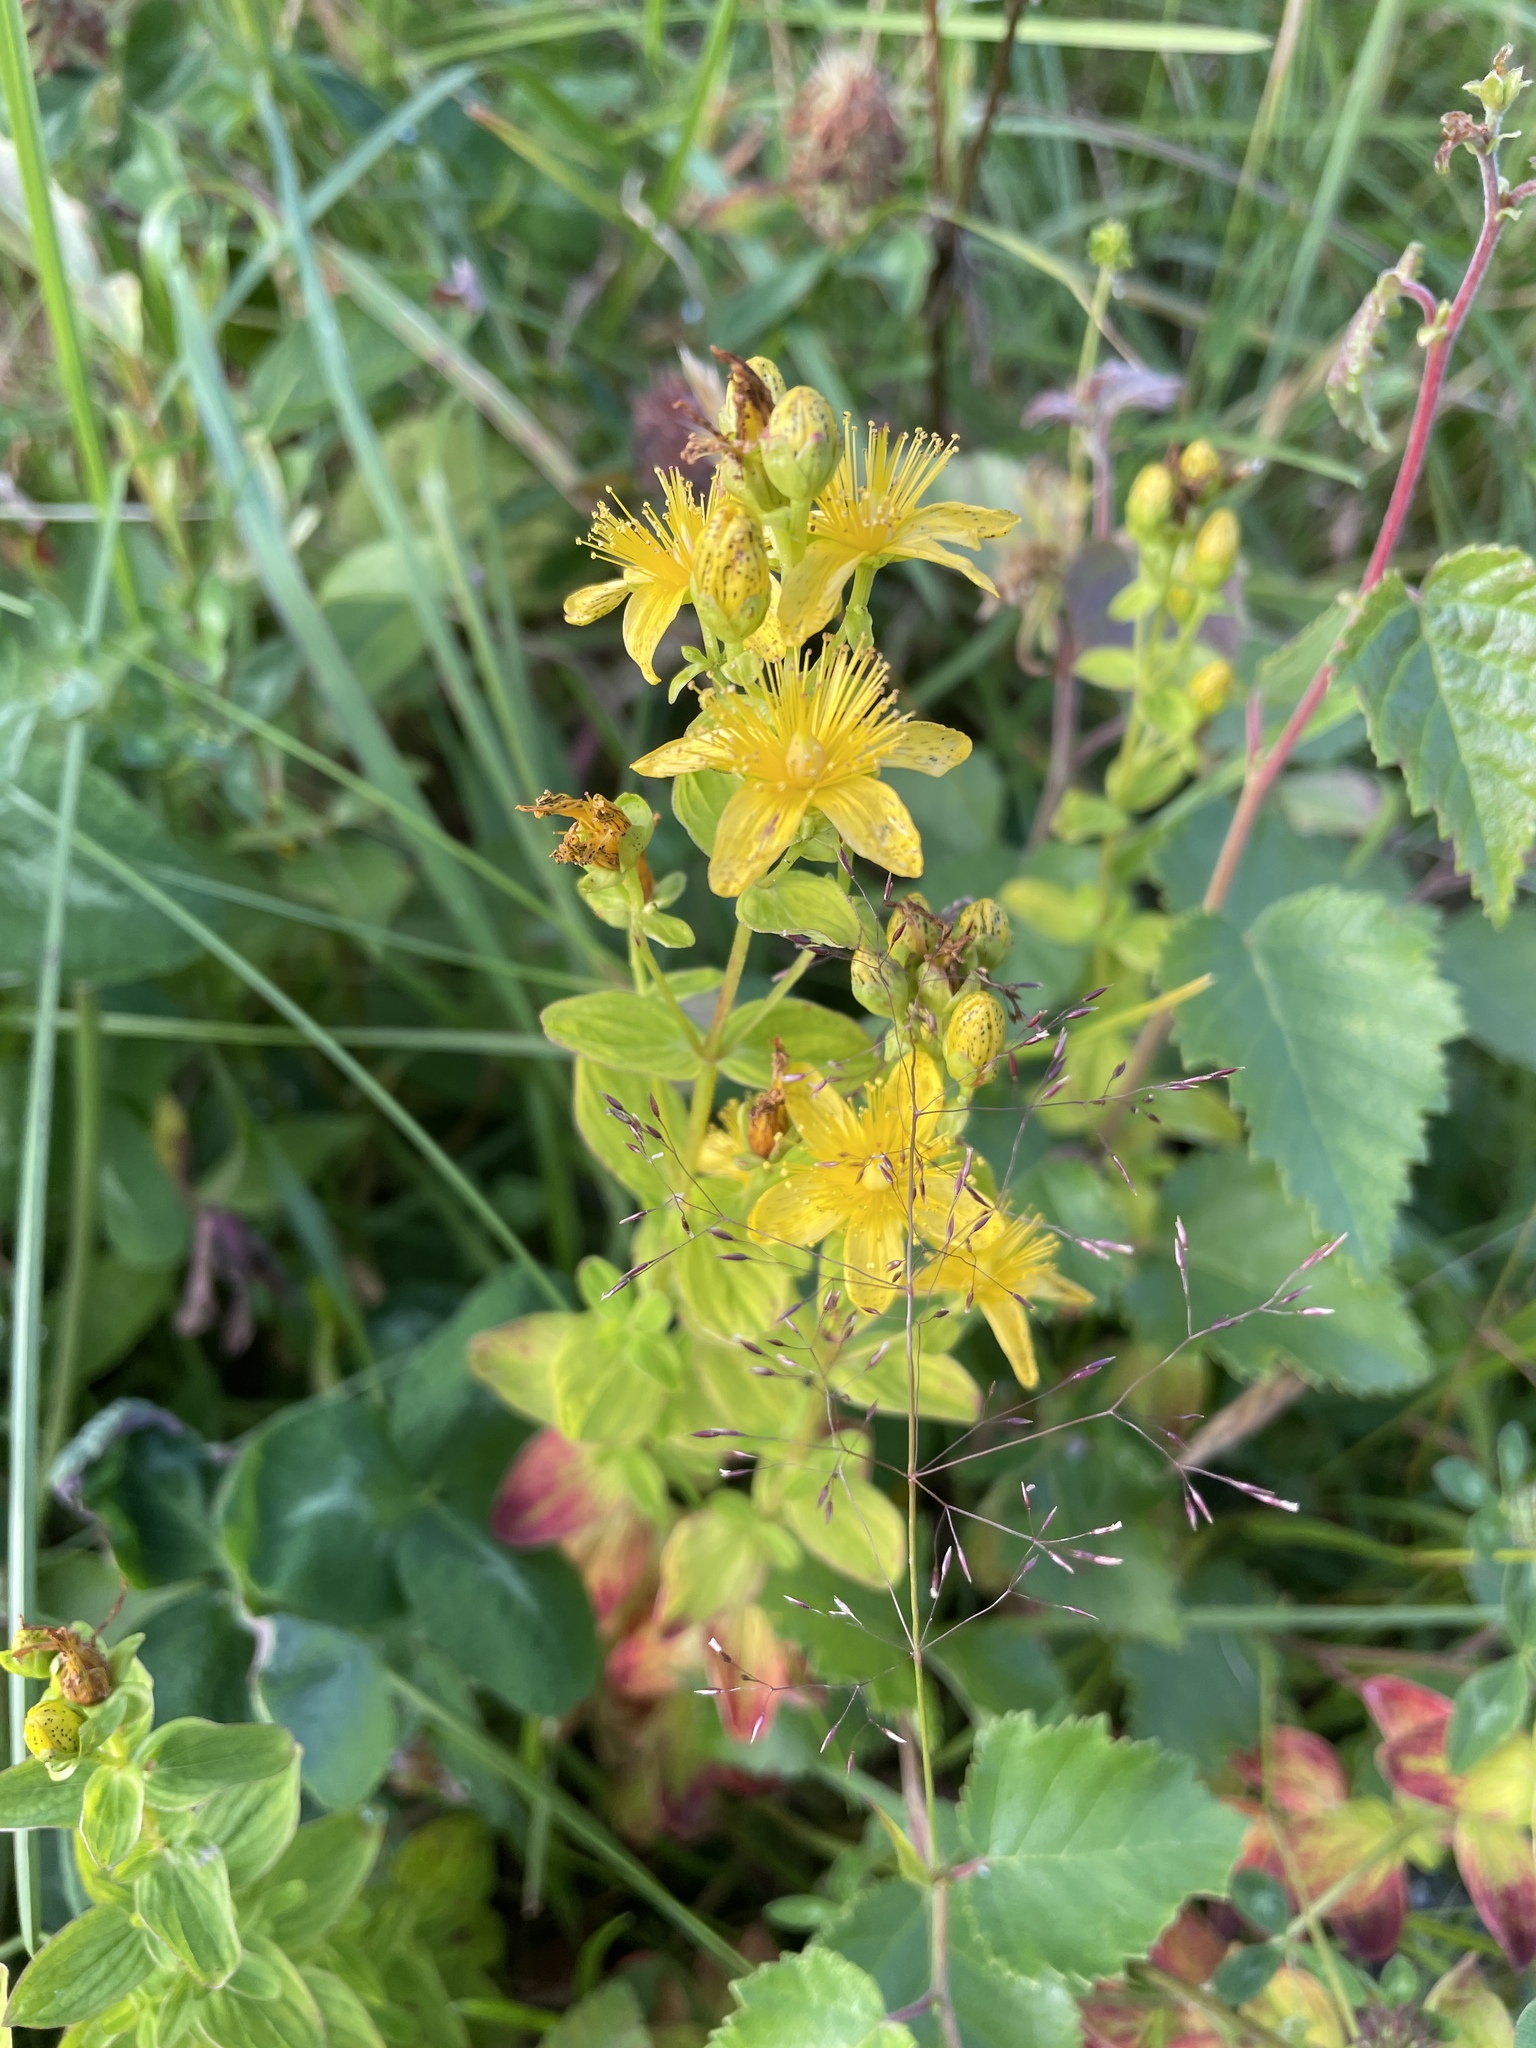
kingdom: Plantae
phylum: Tracheophyta
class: Magnoliopsida
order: Malpighiales
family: Hypericaceae
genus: Hypericum
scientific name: Hypericum maculatum
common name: Imperforate st. john's-wort
